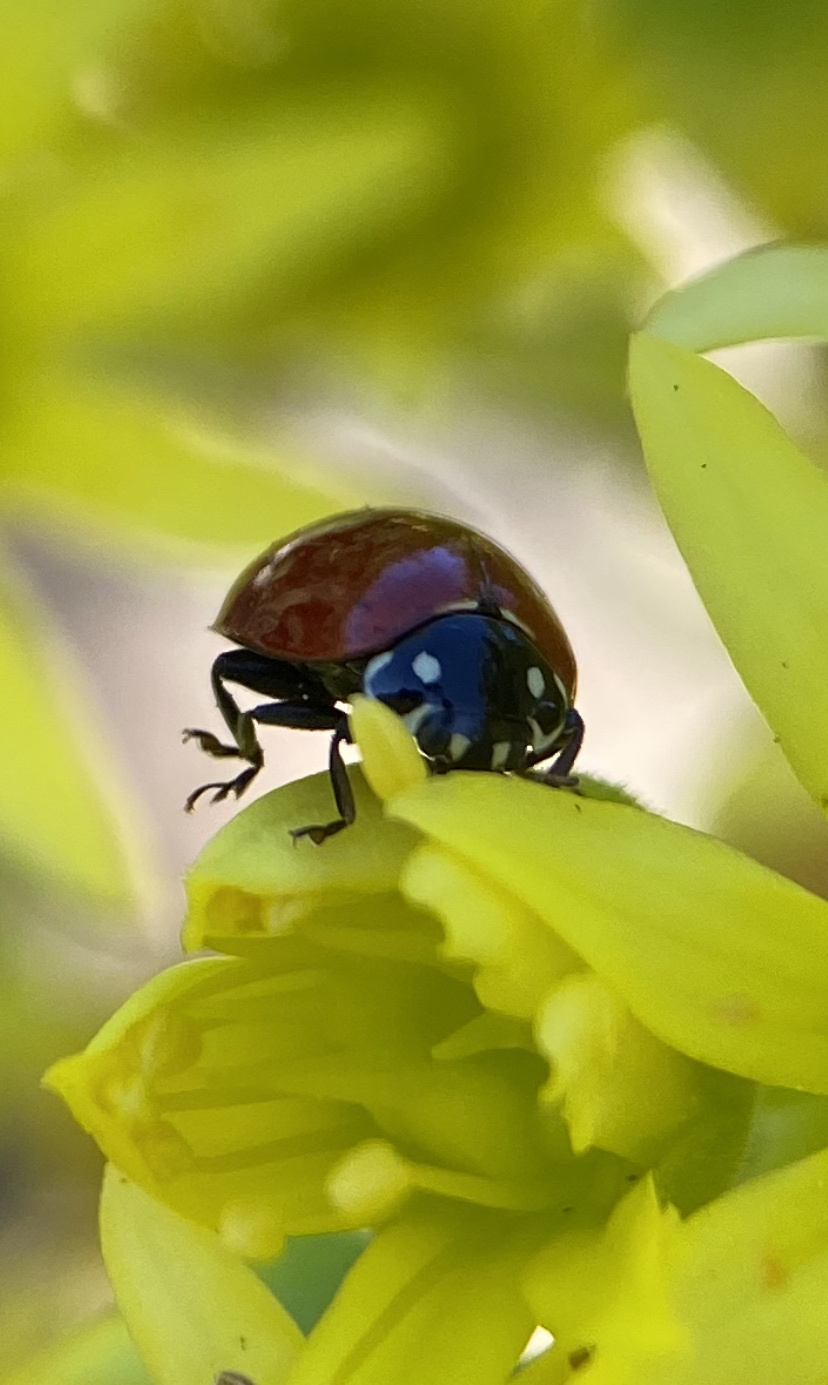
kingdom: Animalia
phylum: Arthropoda
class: Insecta
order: Coleoptera
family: Coccinellidae
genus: Cycloneda
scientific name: Cycloneda sanguinea
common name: Ladybird beetle
